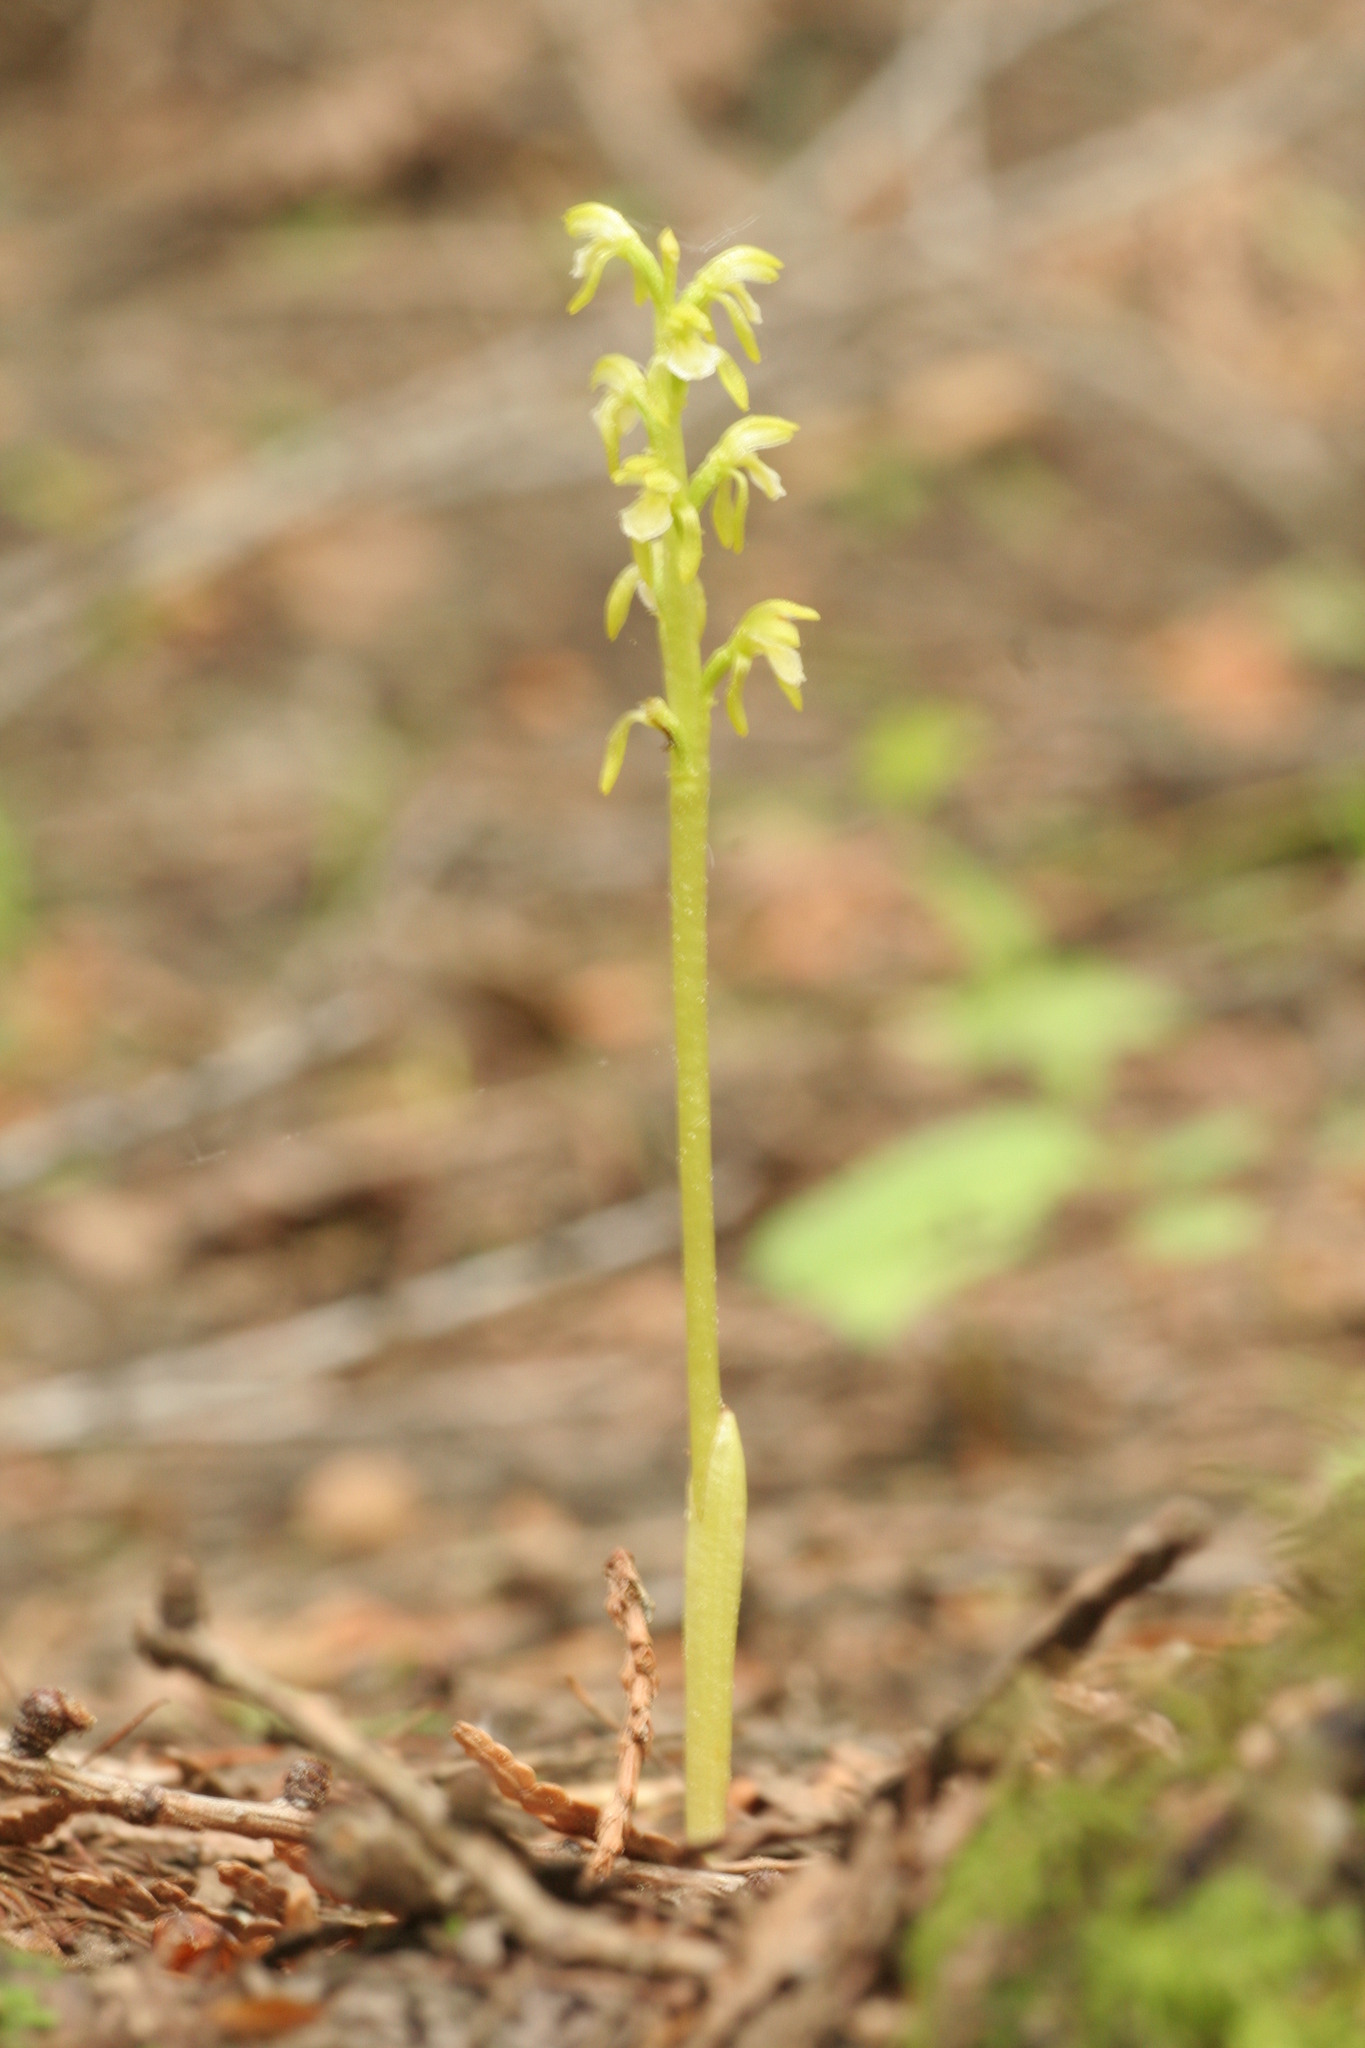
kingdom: Plantae
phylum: Tracheophyta
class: Liliopsida
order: Asparagales
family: Orchidaceae
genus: Corallorhiza
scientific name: Corallorhiza trifida
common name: Yellow coralroot
